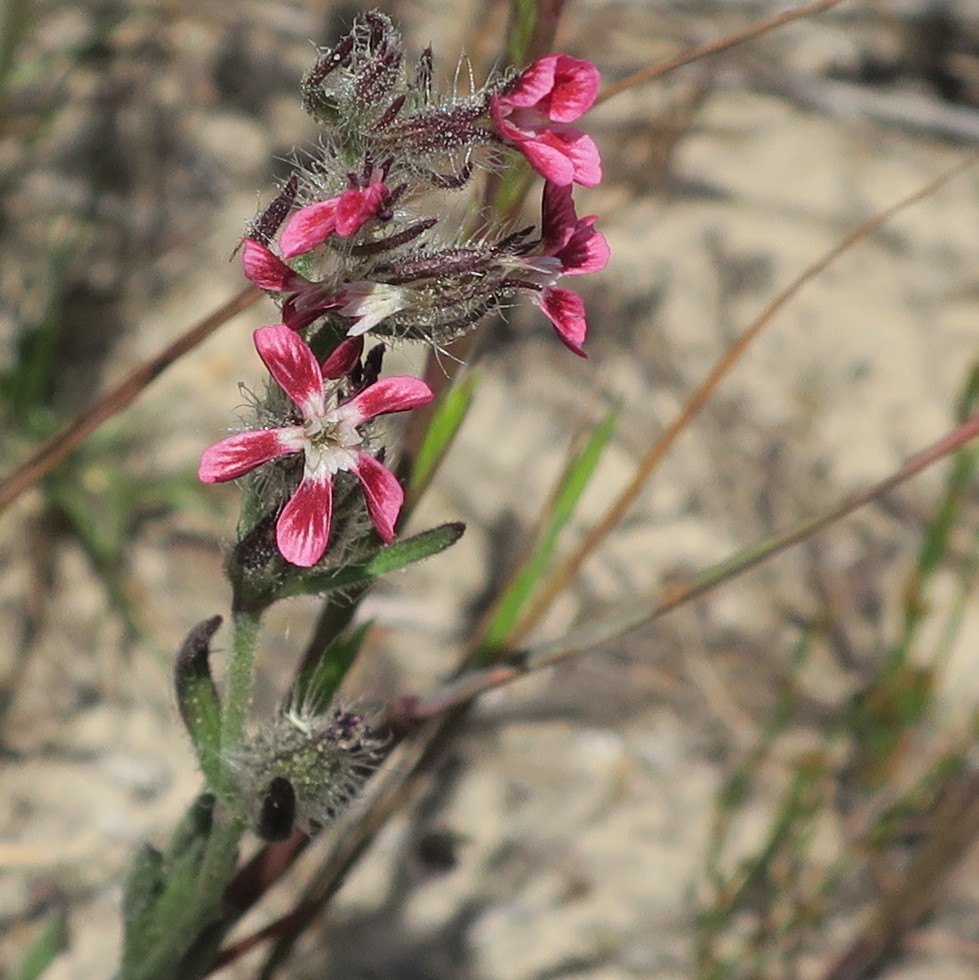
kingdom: Plantae
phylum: Tracheophyta
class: Magnoliopsida
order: Caryophyllales
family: Caryophyllaceae
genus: Silene
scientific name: Silene gallica
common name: Small-flowered catchfly
